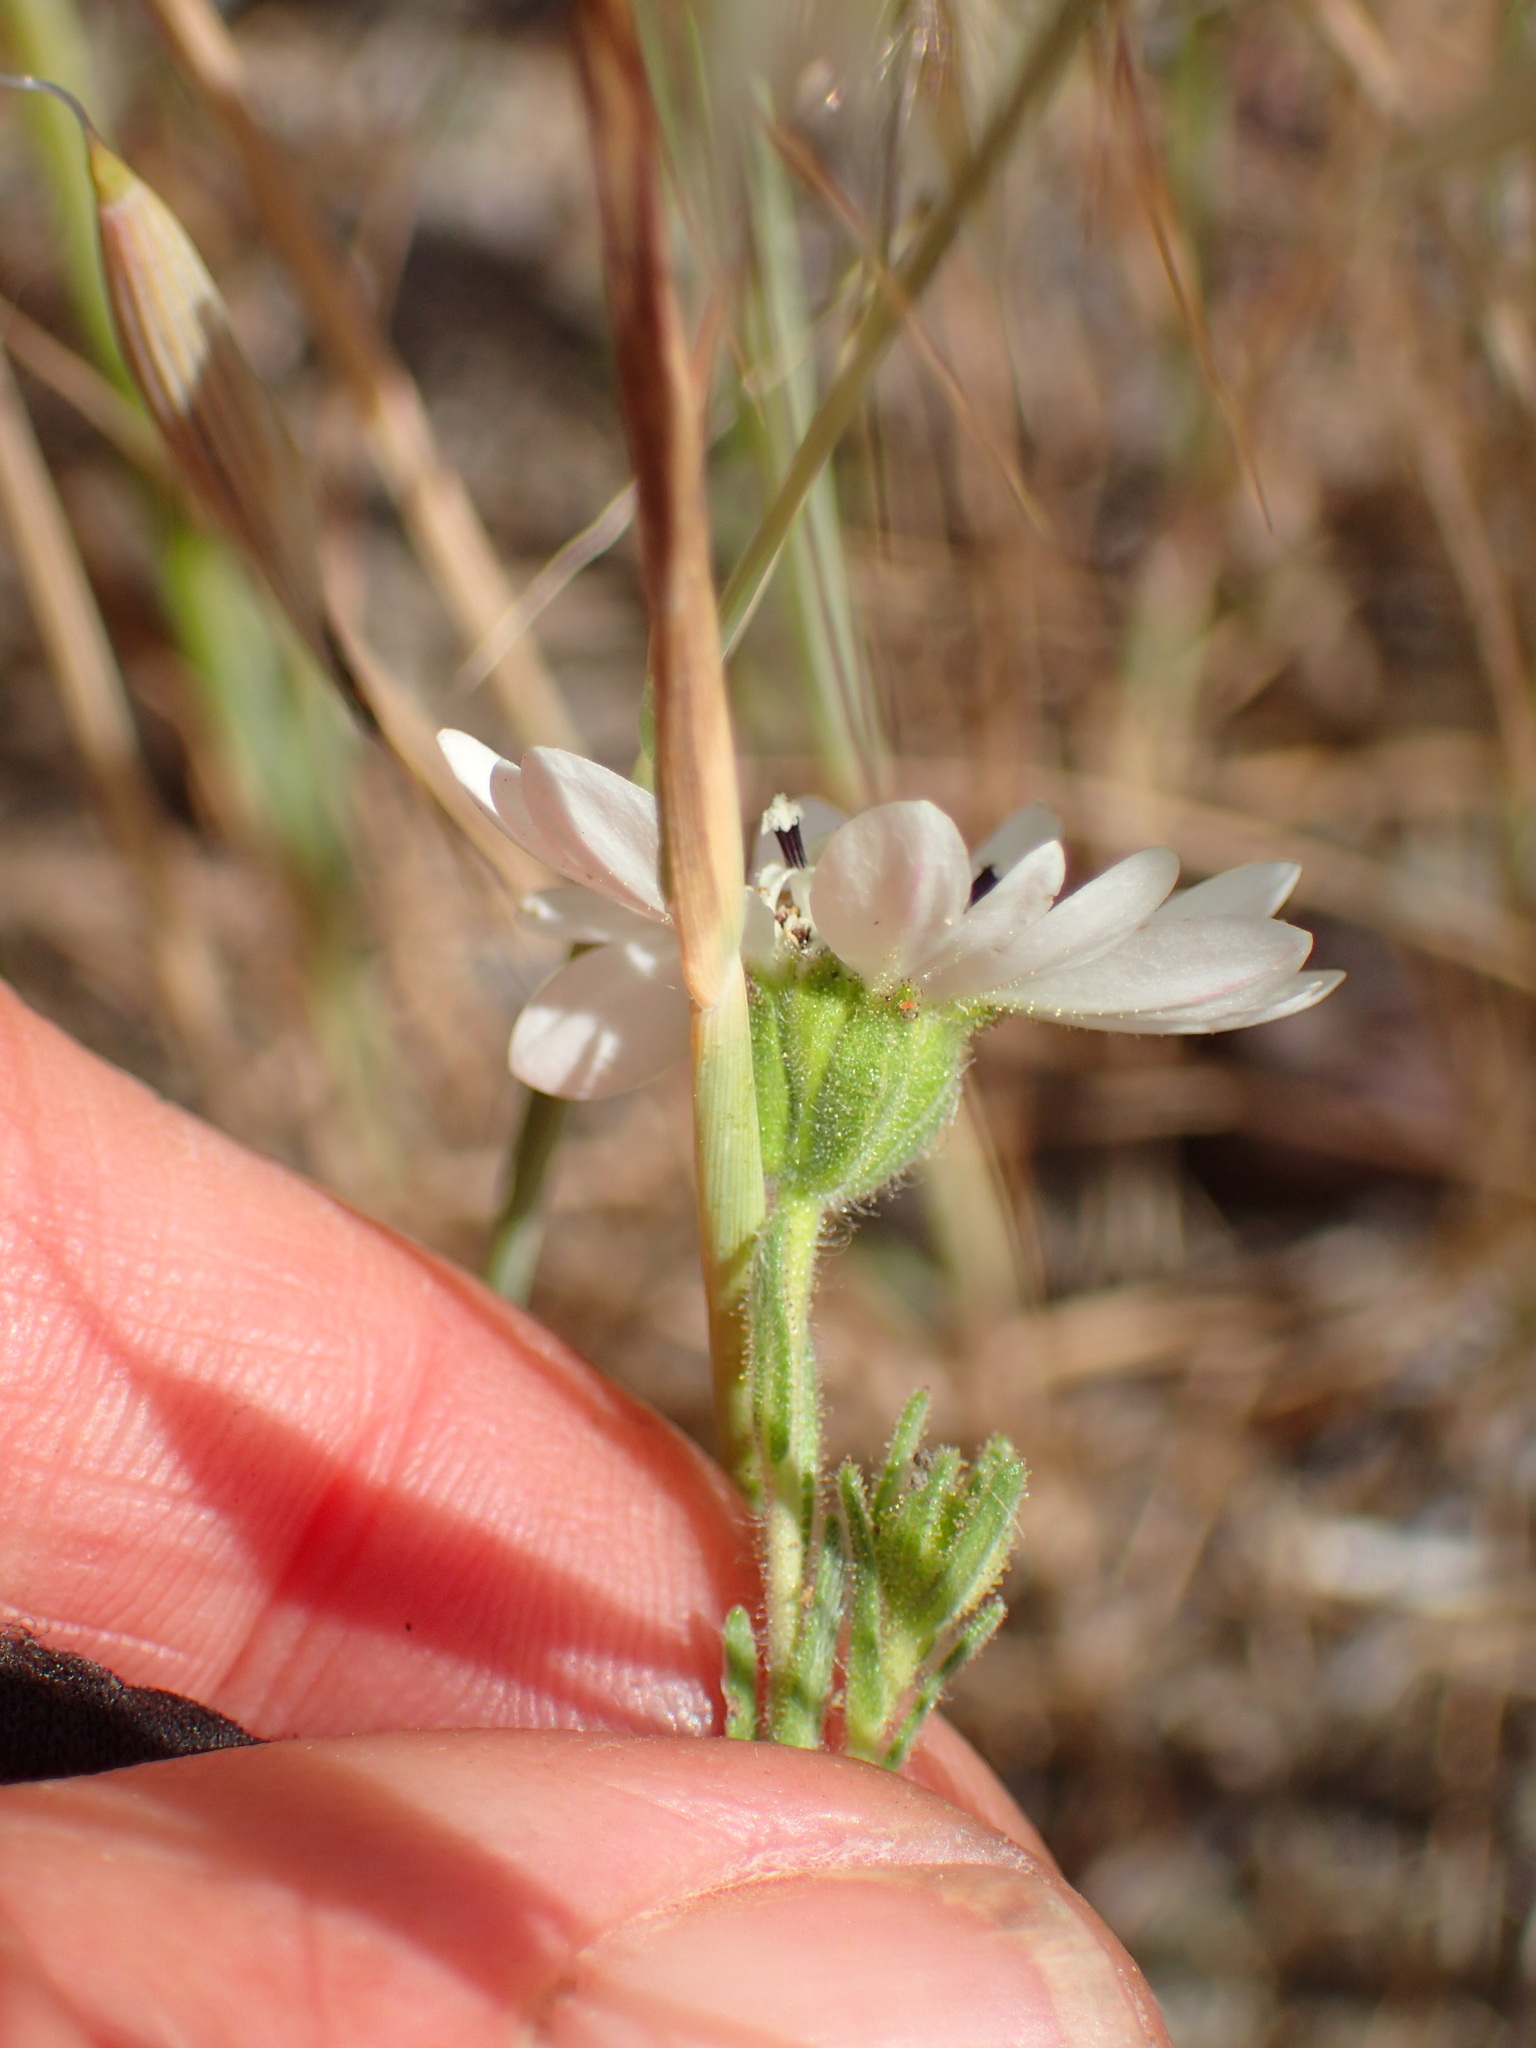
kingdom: Plantae
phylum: Tracheophyta
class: Magnoliopsida
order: Asterales
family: Asteraceae
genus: Hemizonia
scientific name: Hemizonia congesta
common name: Hayfield tarweed
